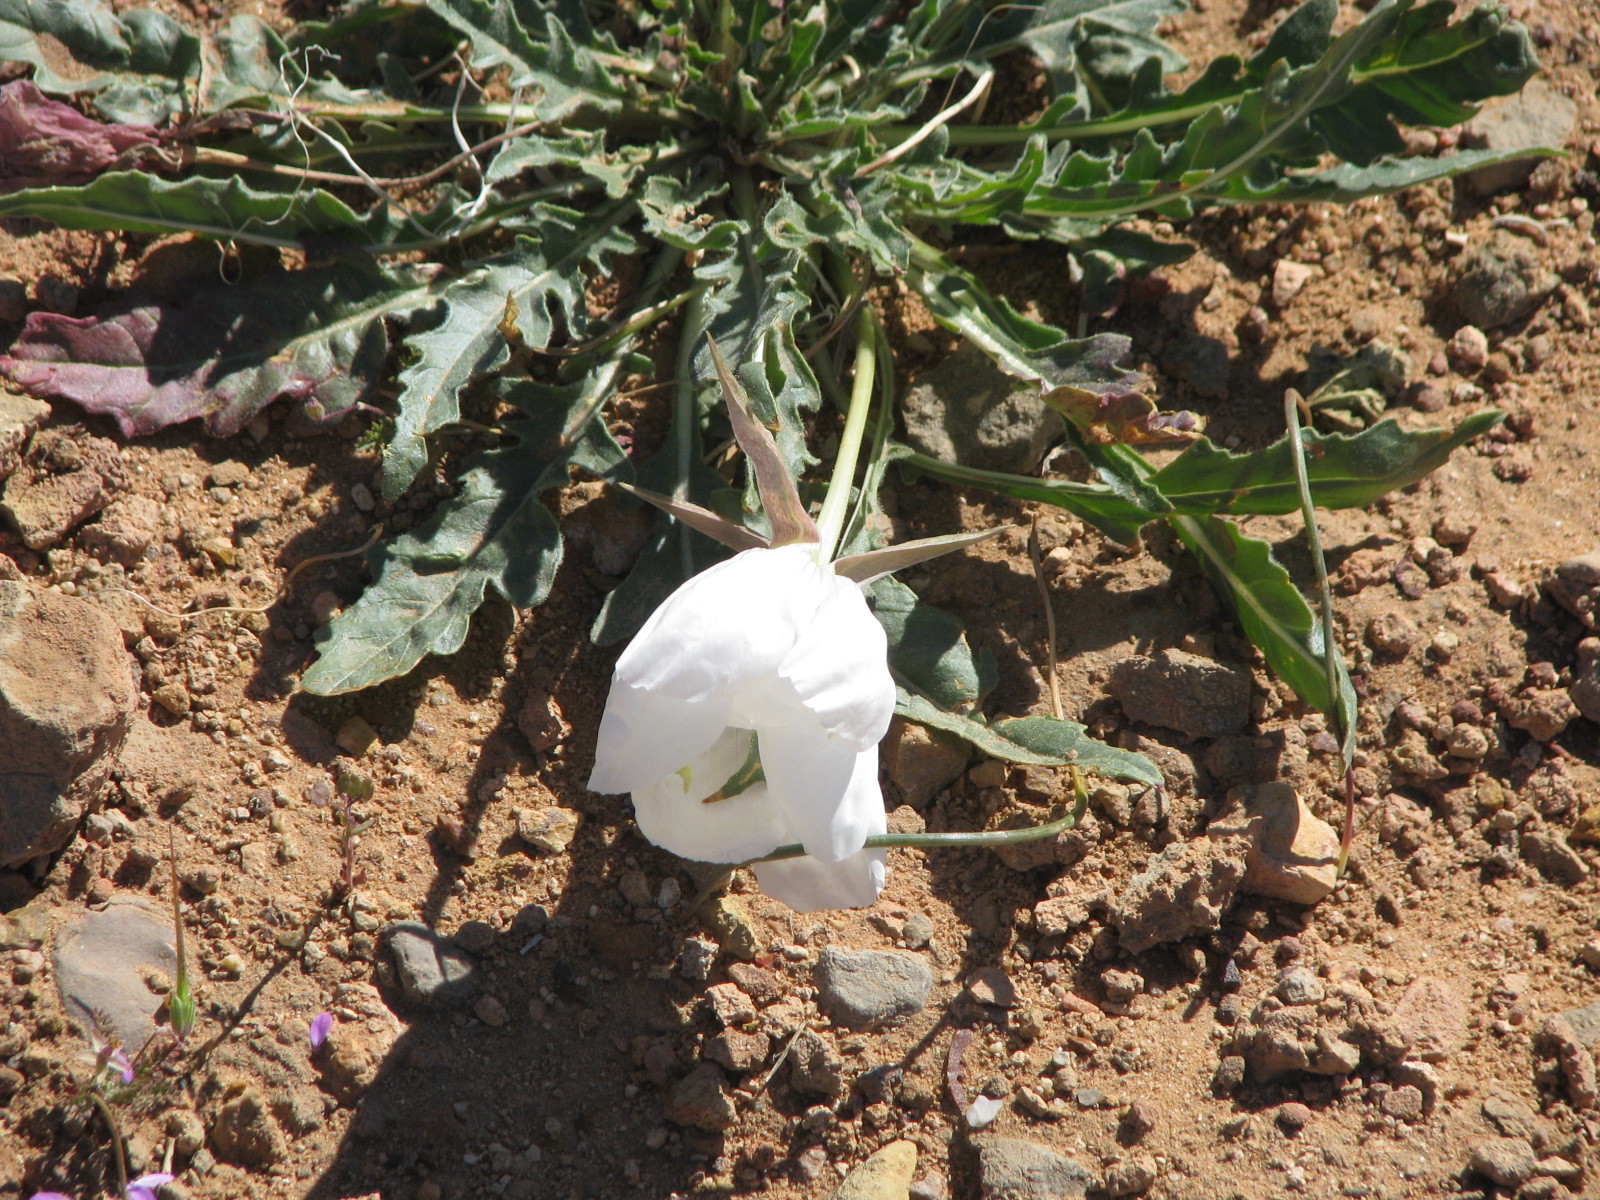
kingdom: Plantae
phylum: Tracheophyta
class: Magnoliopsida
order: Myrtales
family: Onagraceae
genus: Oenothera
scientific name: Oenothera cespitosa
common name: Tufted evening-primrose
